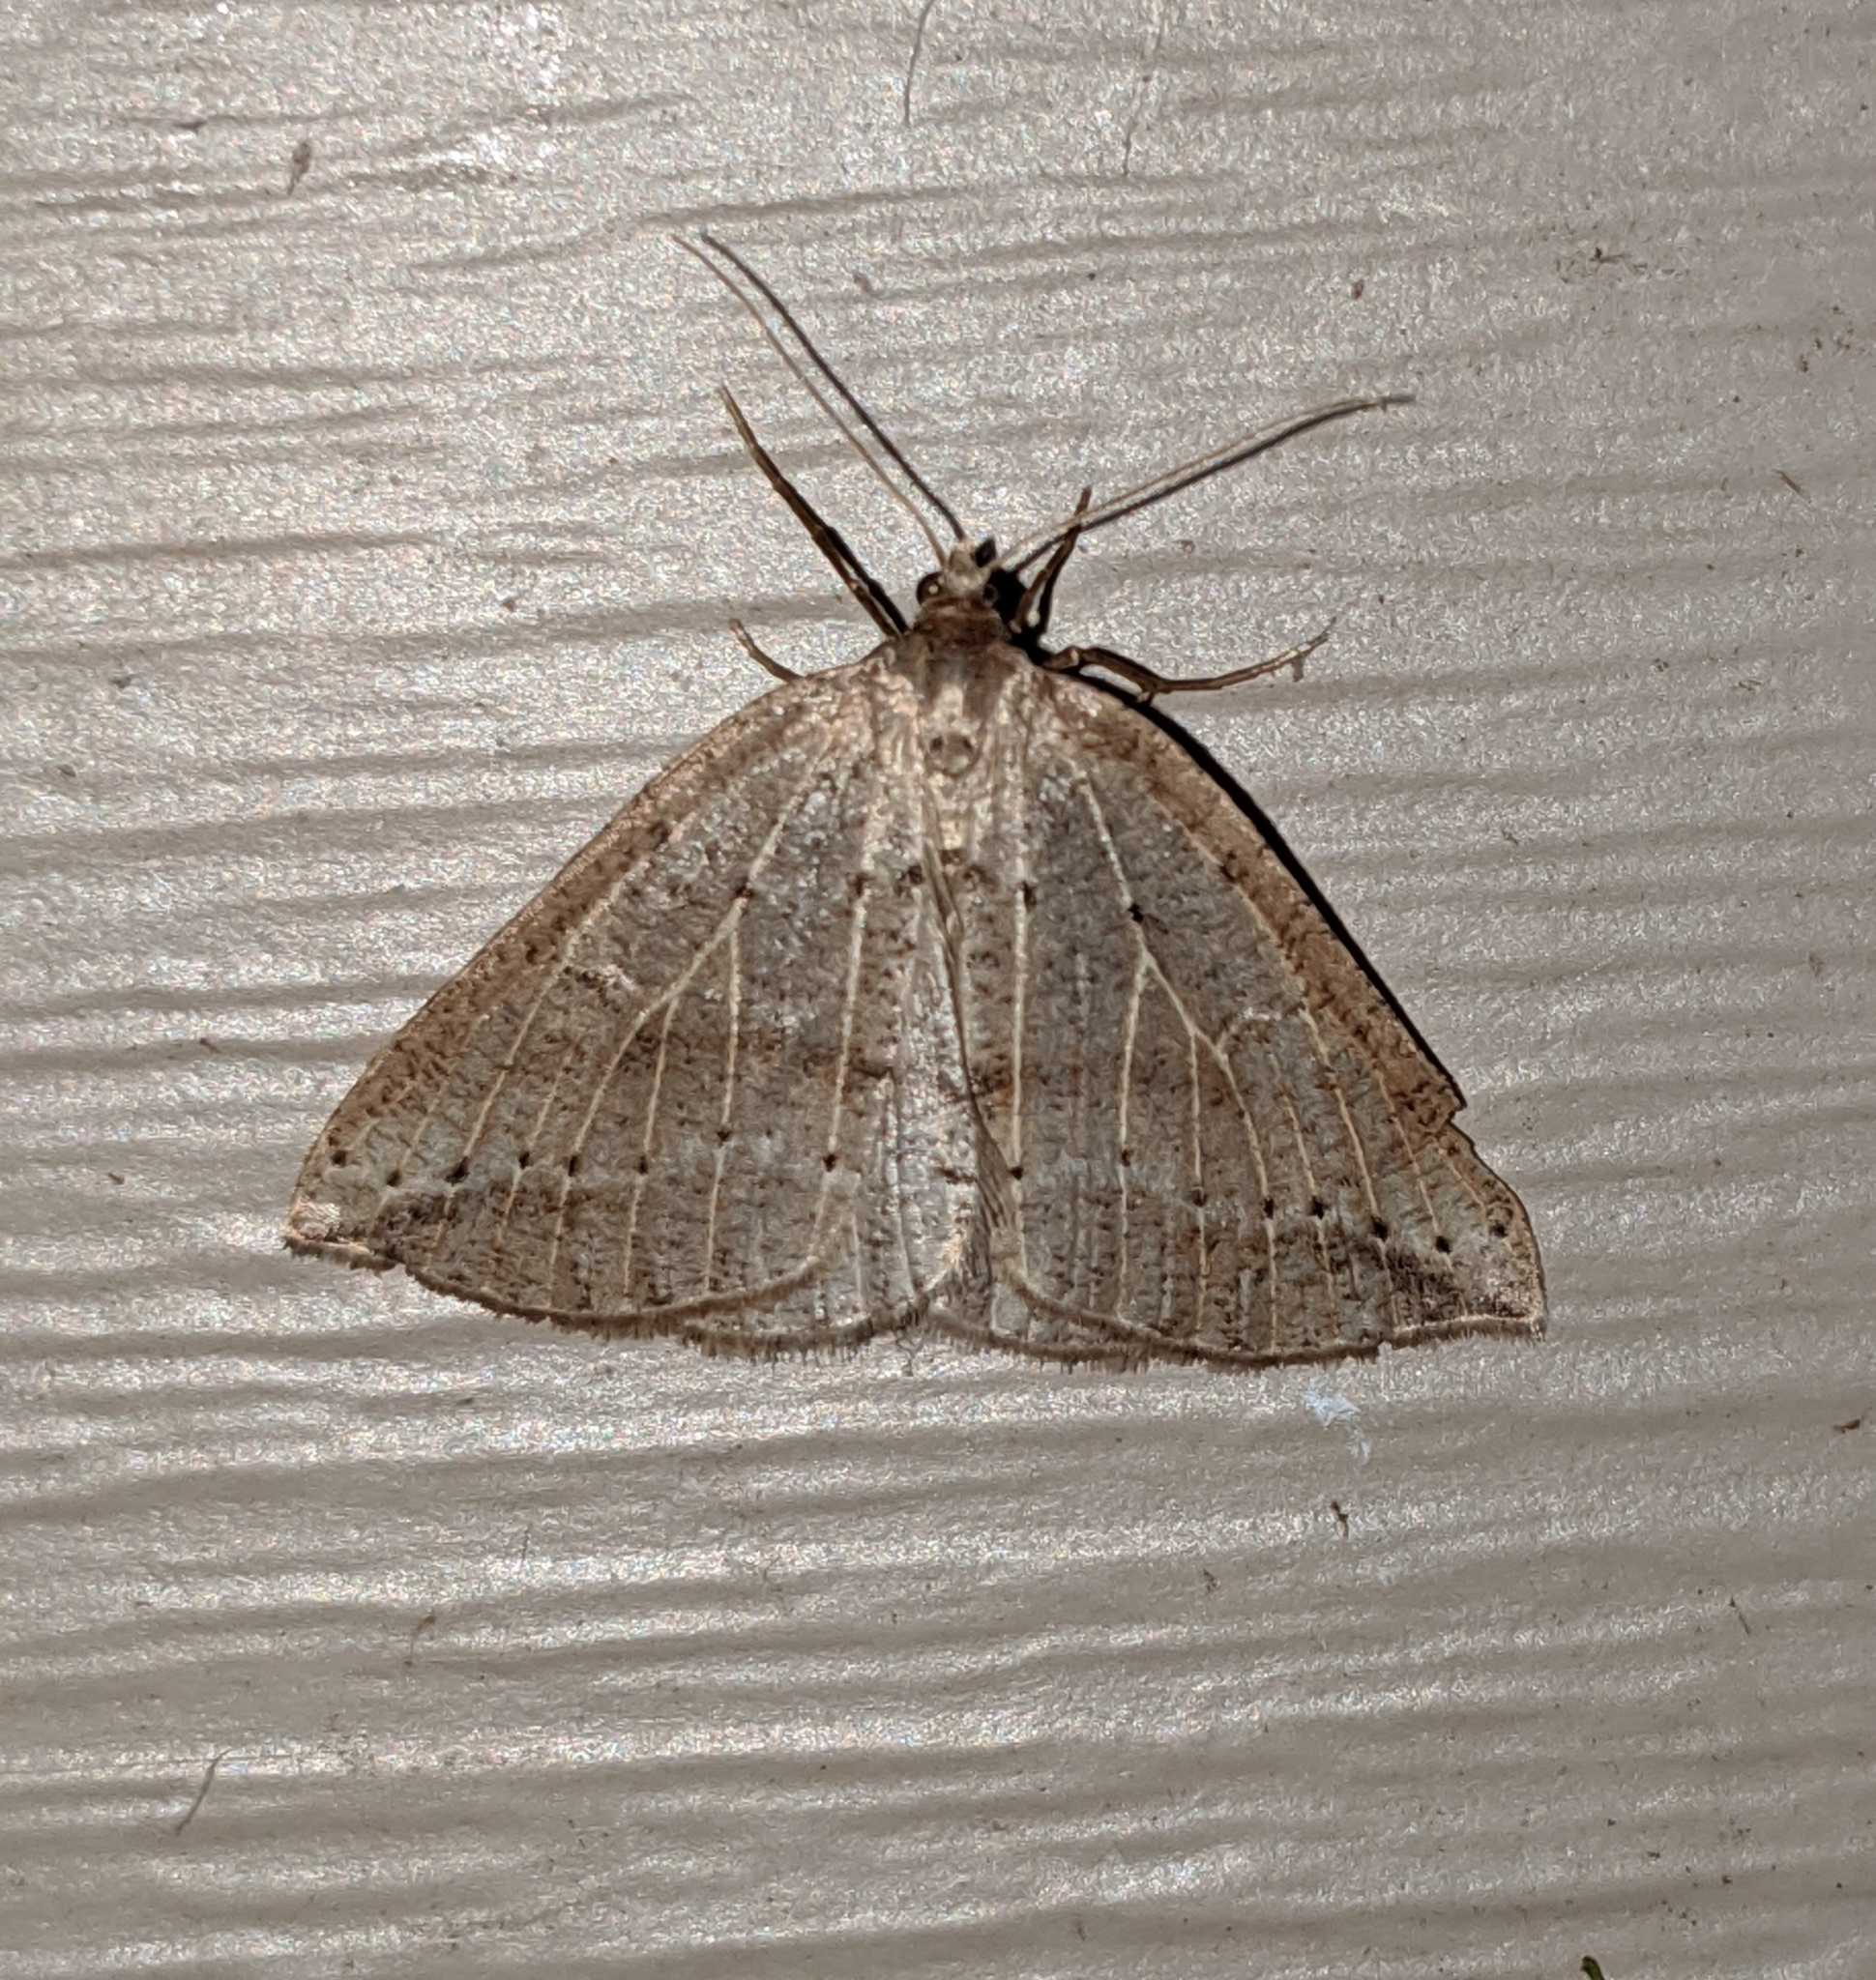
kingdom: Animalia
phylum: Arthropoda
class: Insecta
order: Lepidoptera
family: Geometridae
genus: Thallophaga
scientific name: Thallophaga taylorata
